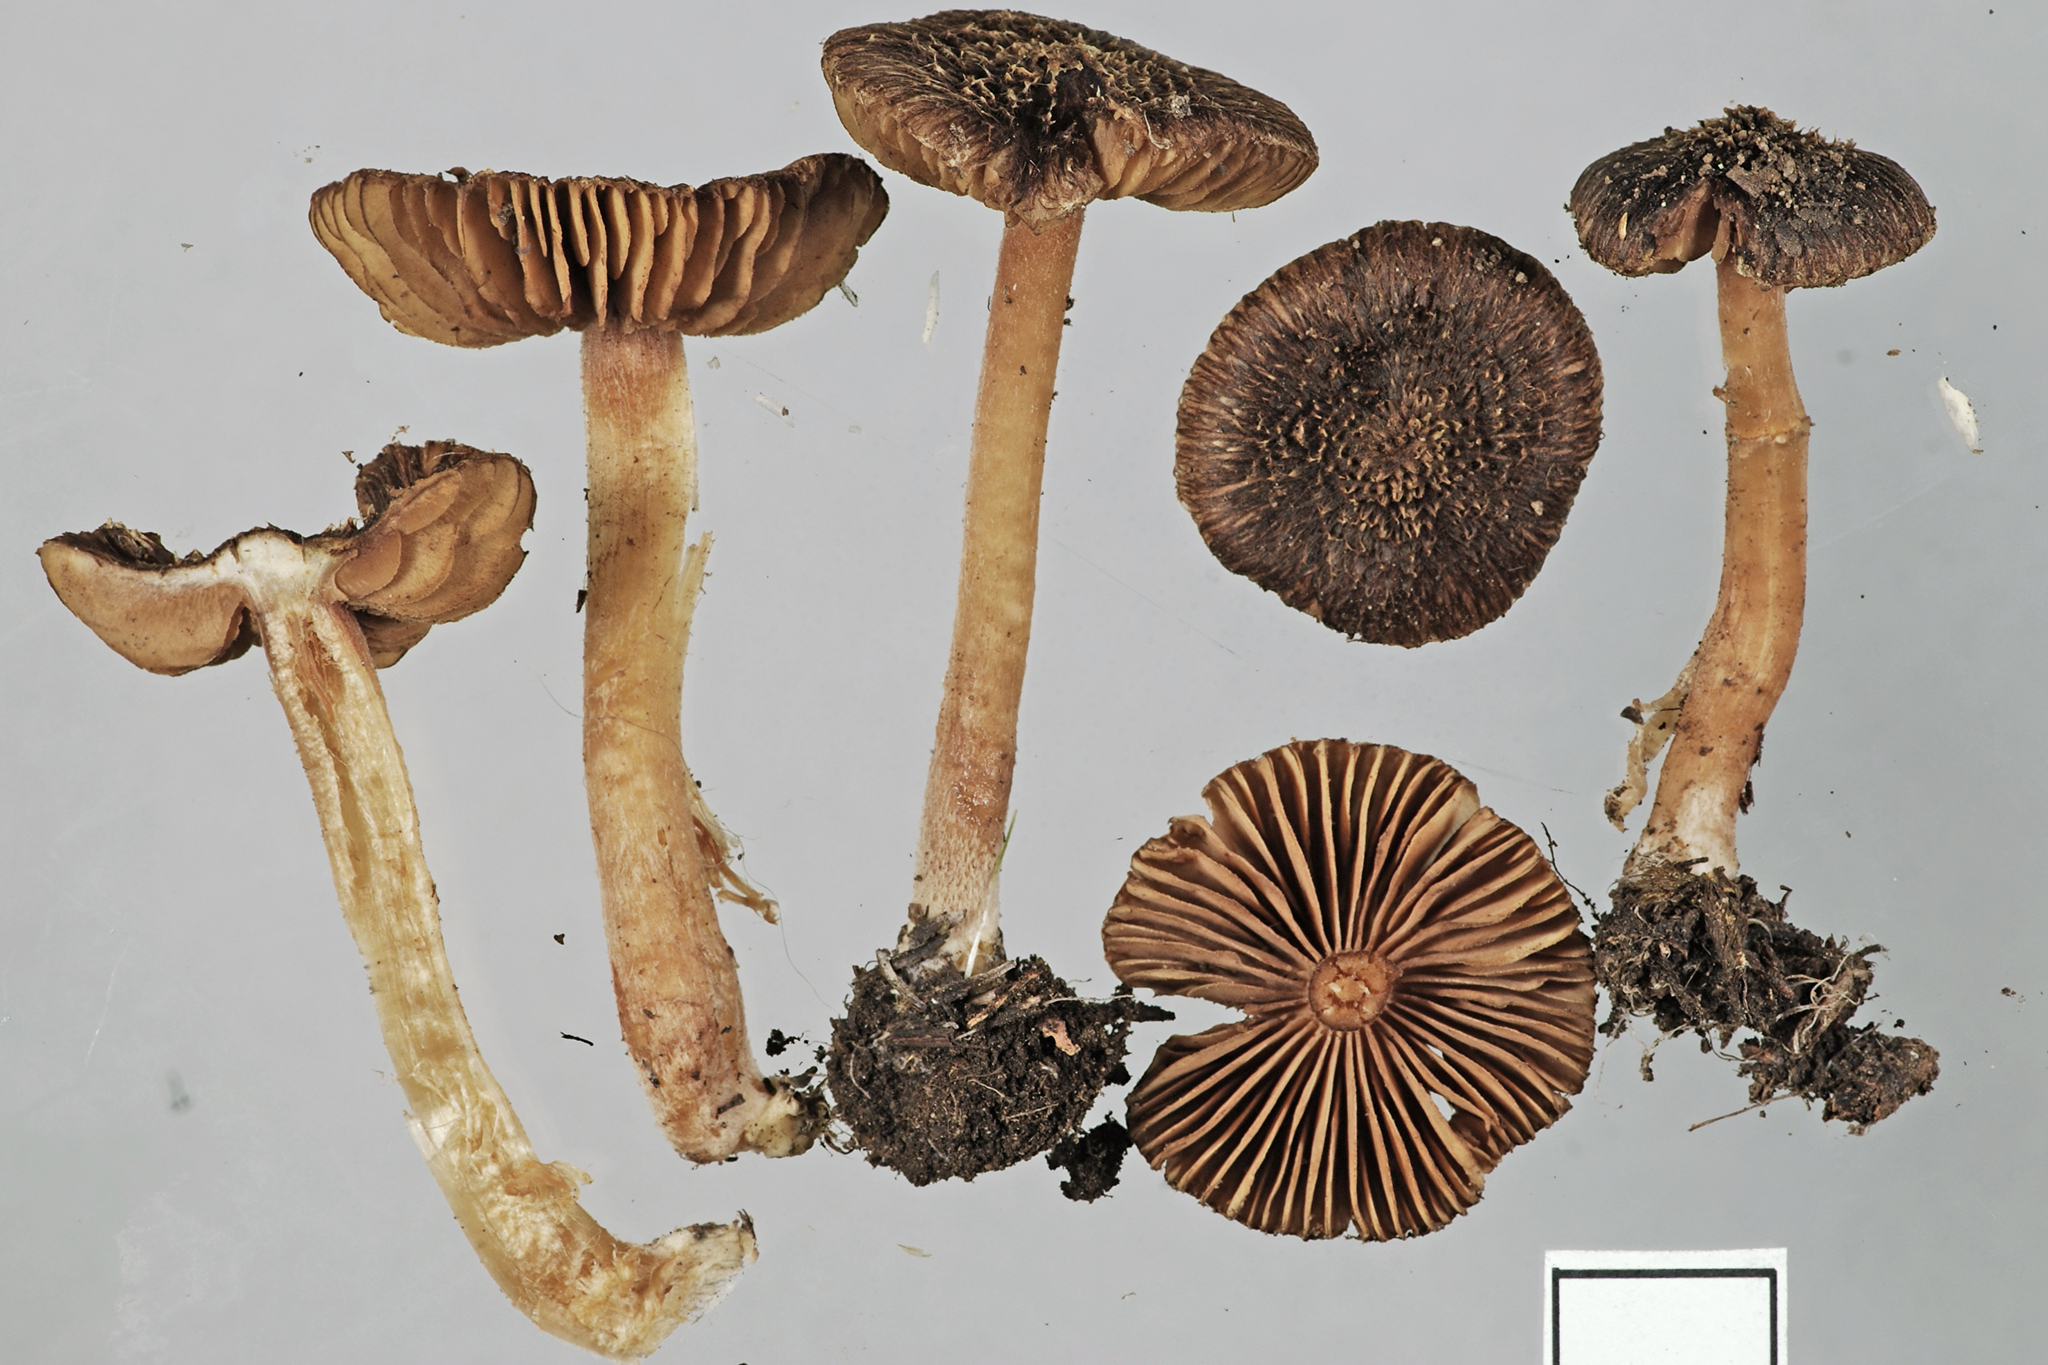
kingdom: Fungi
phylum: Basidiomycota
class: Agaricomycetes
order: Agaricales
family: Inocybaceae
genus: Inocybe
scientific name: Inocybe fuscosquarrosa
